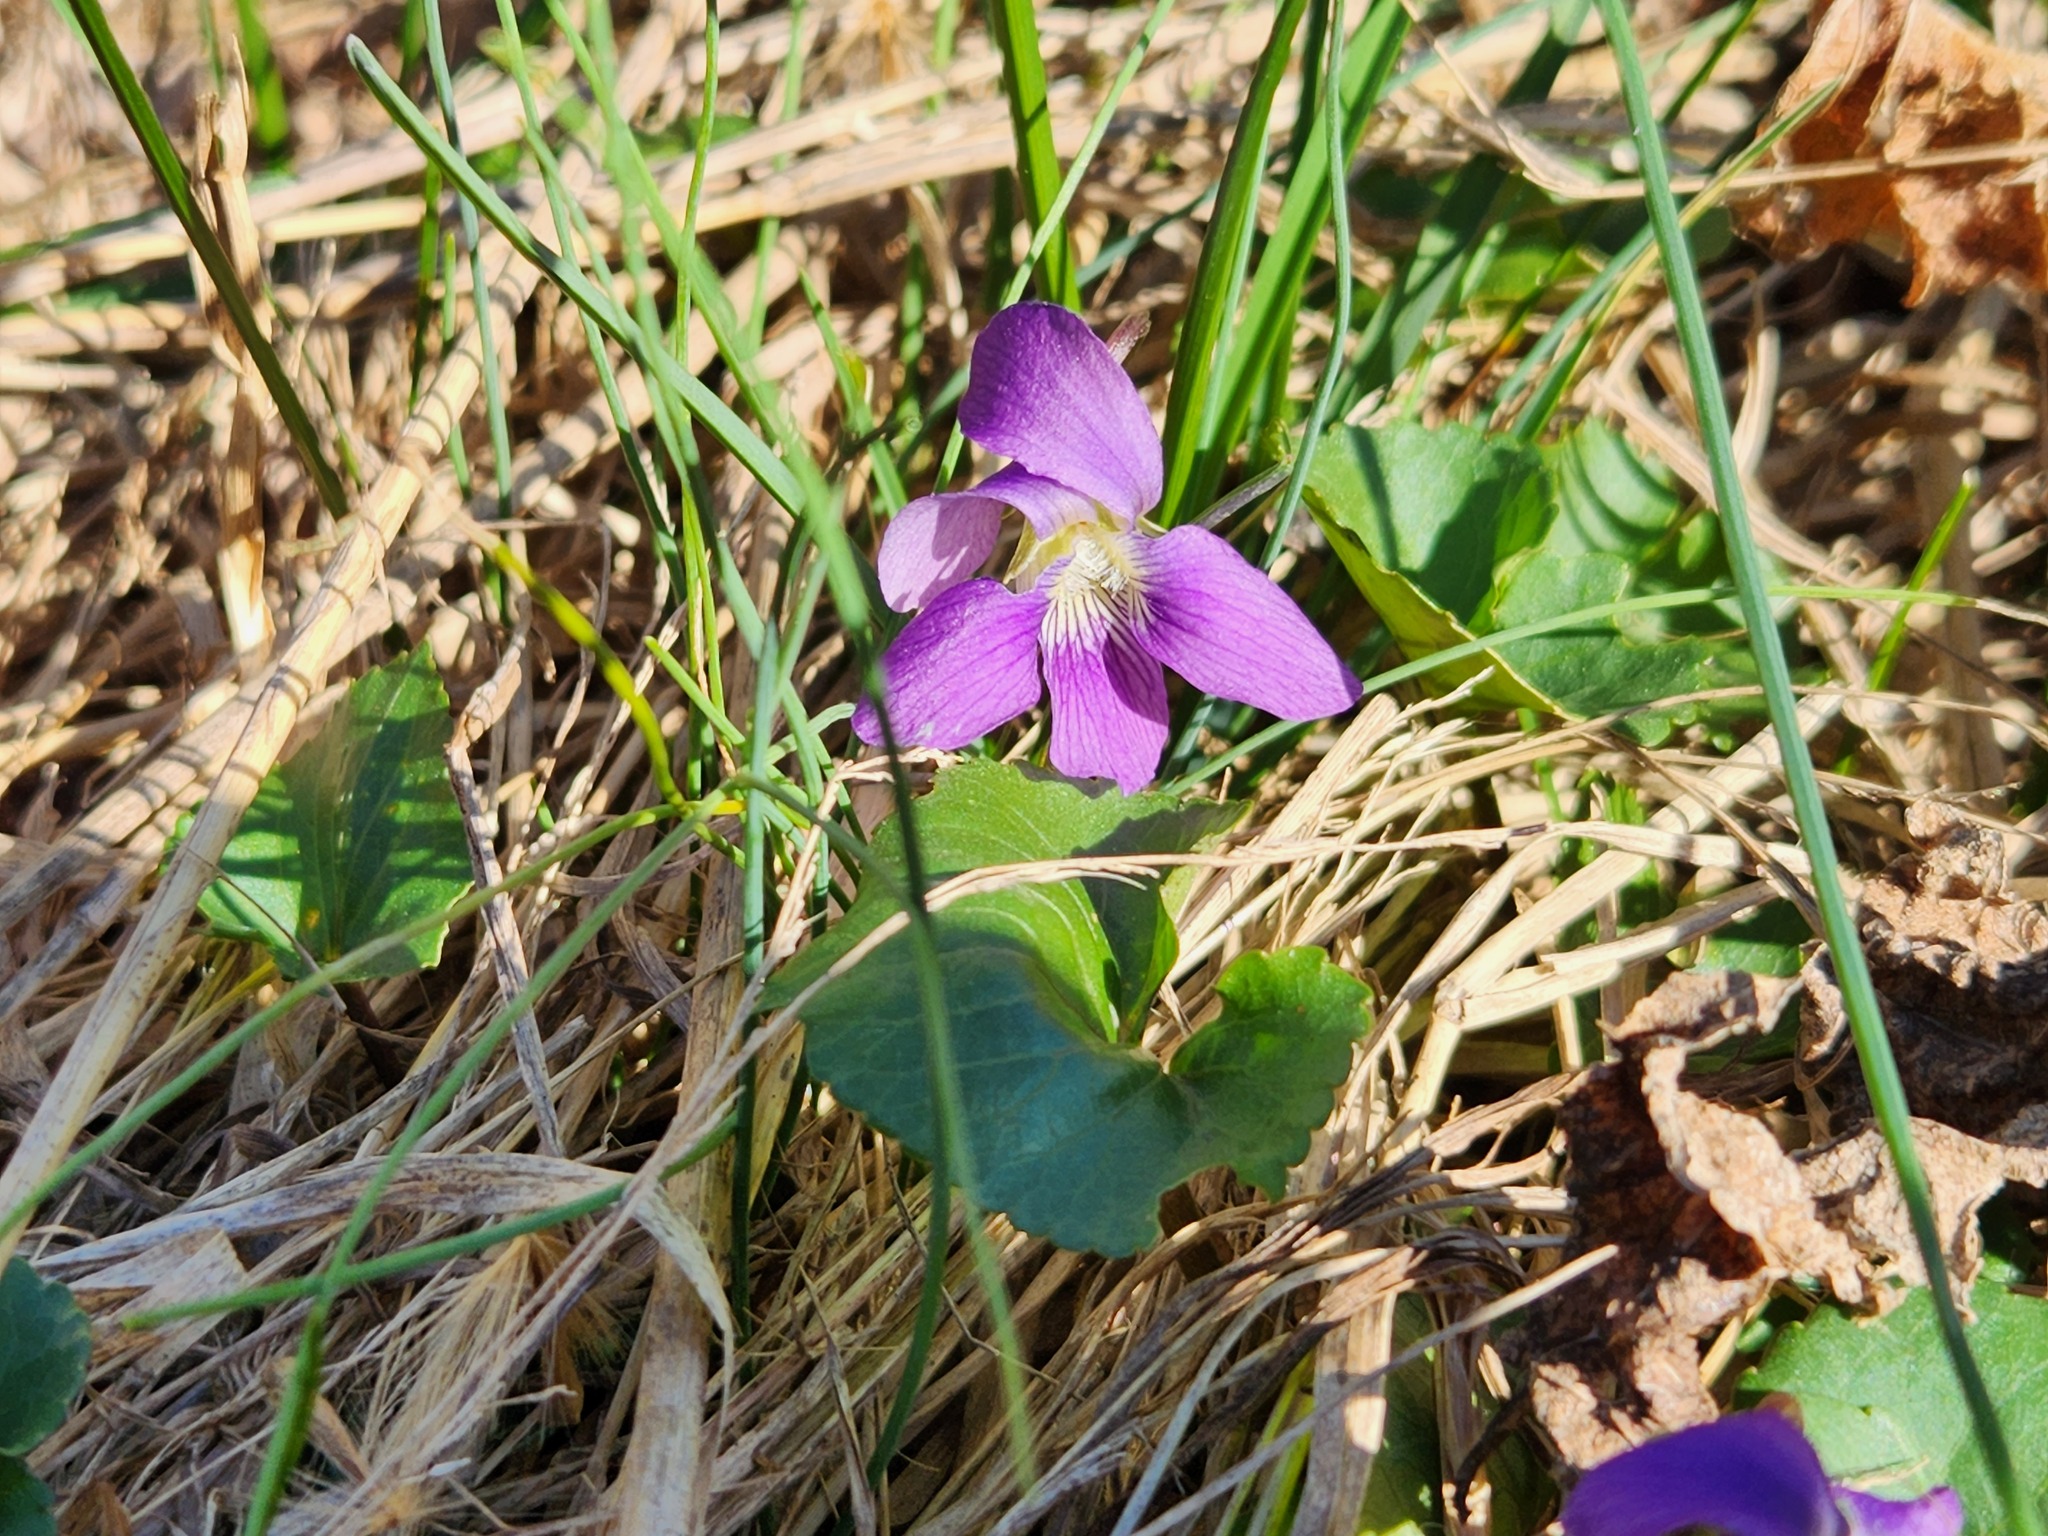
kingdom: Plantae
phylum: Tracheophyta
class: Magnoliopsida
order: Malpighiales
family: Violaceae
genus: Viola
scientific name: Viola sororia
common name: Dooryard violet
